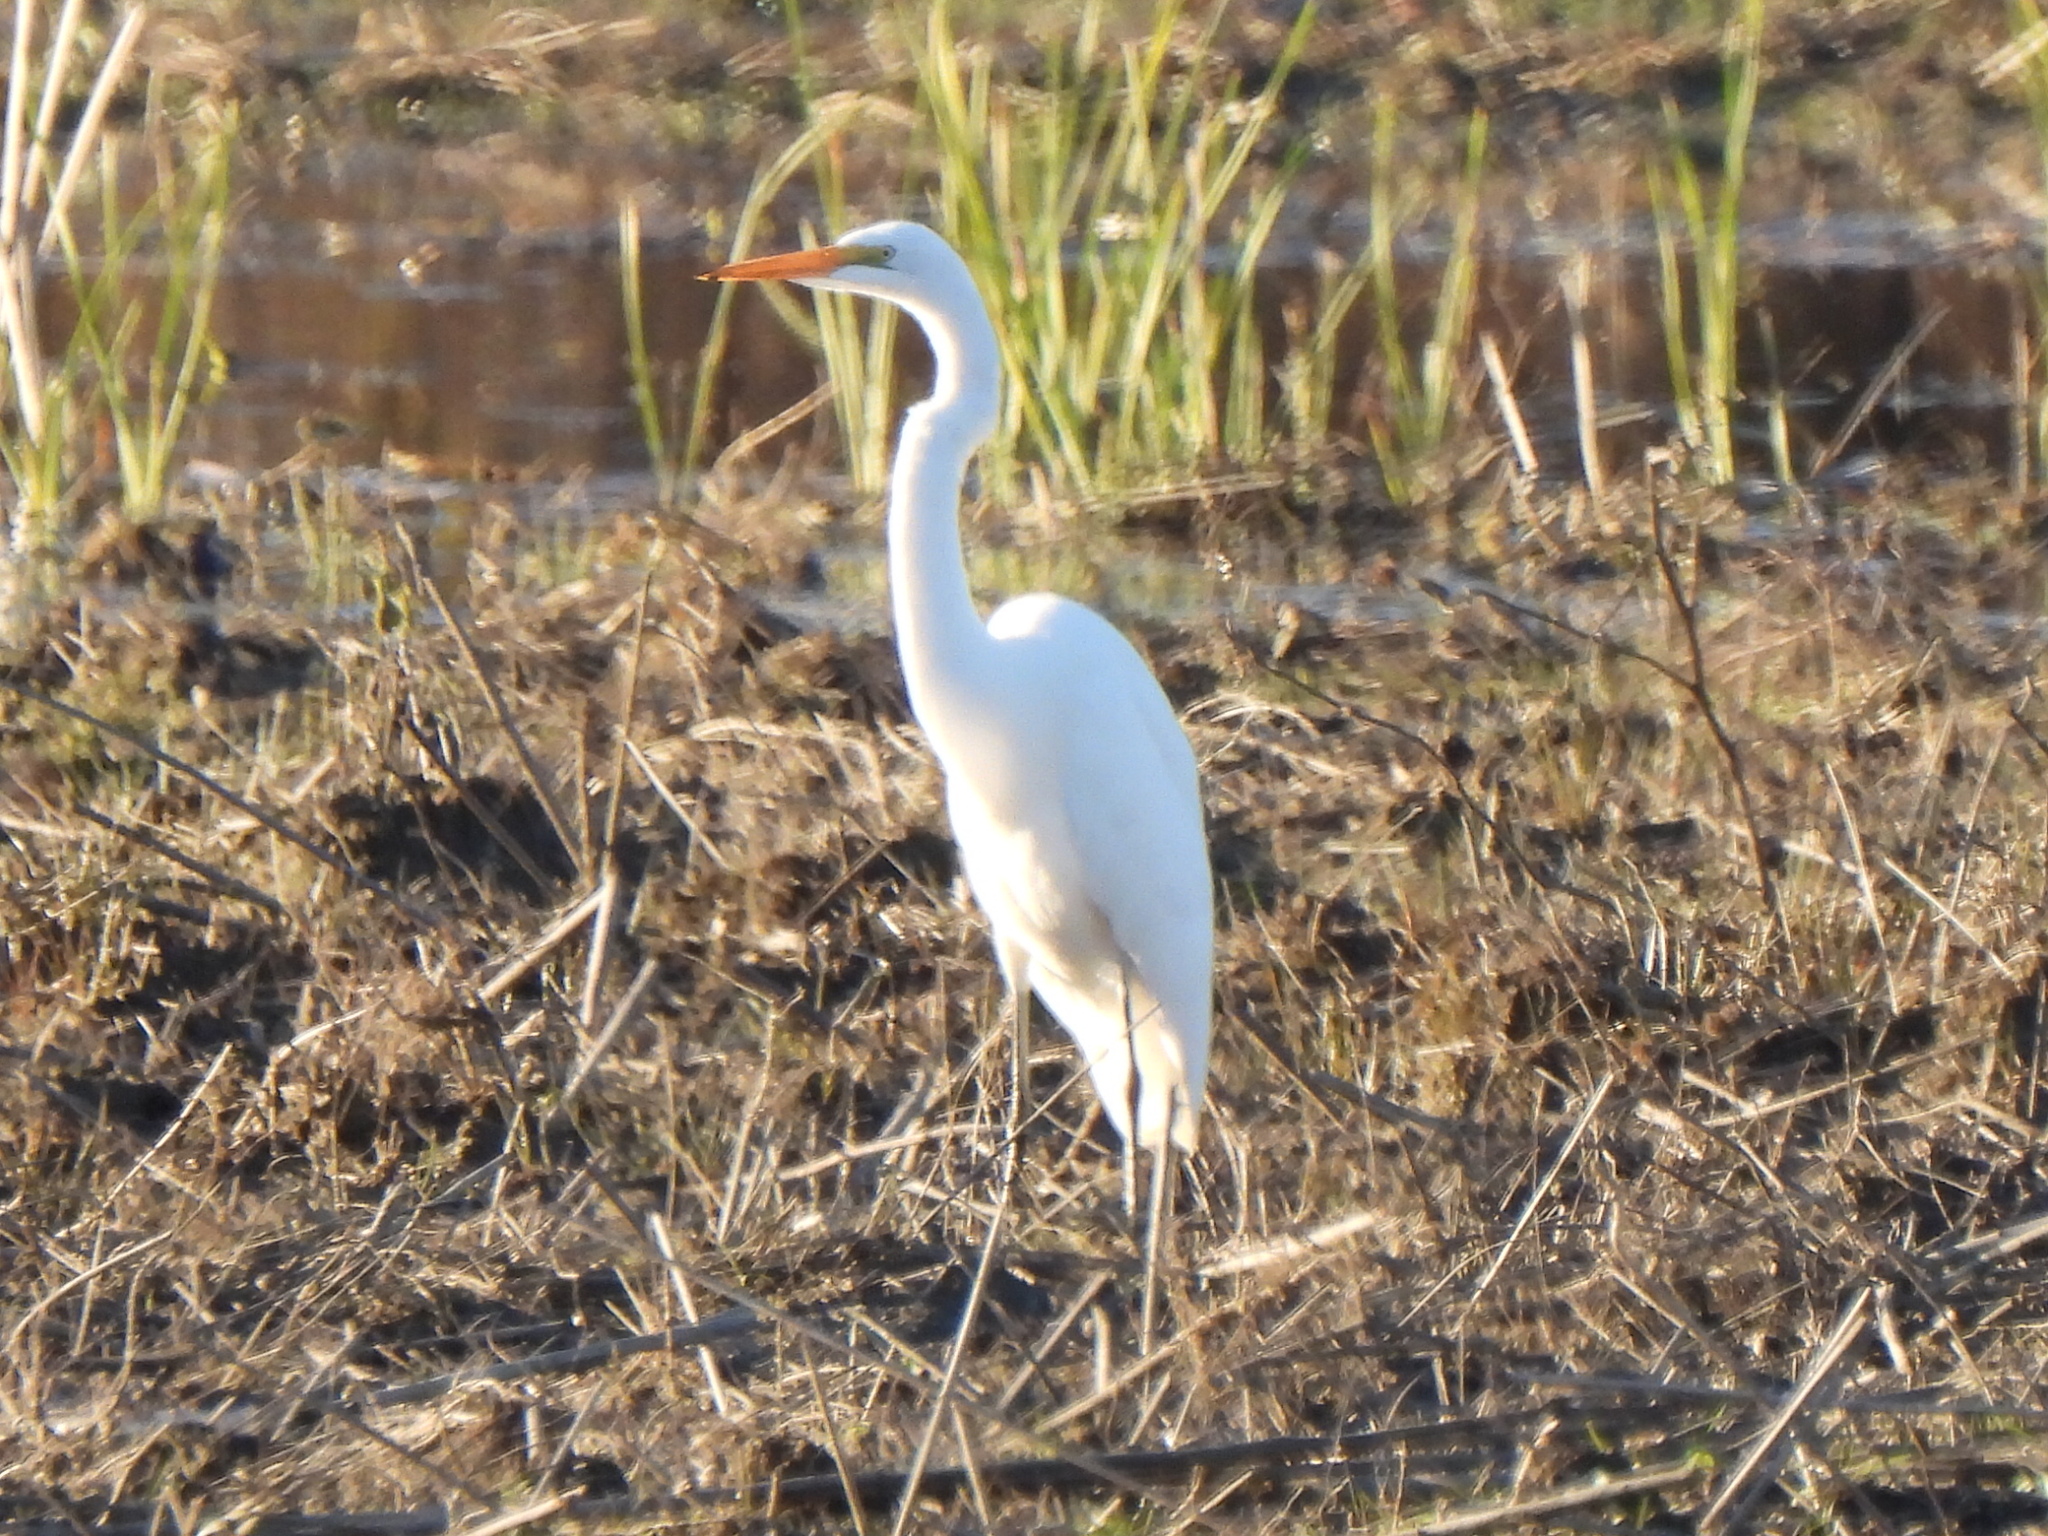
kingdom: Animalia
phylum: Chordata
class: Aves
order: Pelecaniformes
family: Ardeidae
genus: Ardea
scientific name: Ardea alba
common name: Great egret
